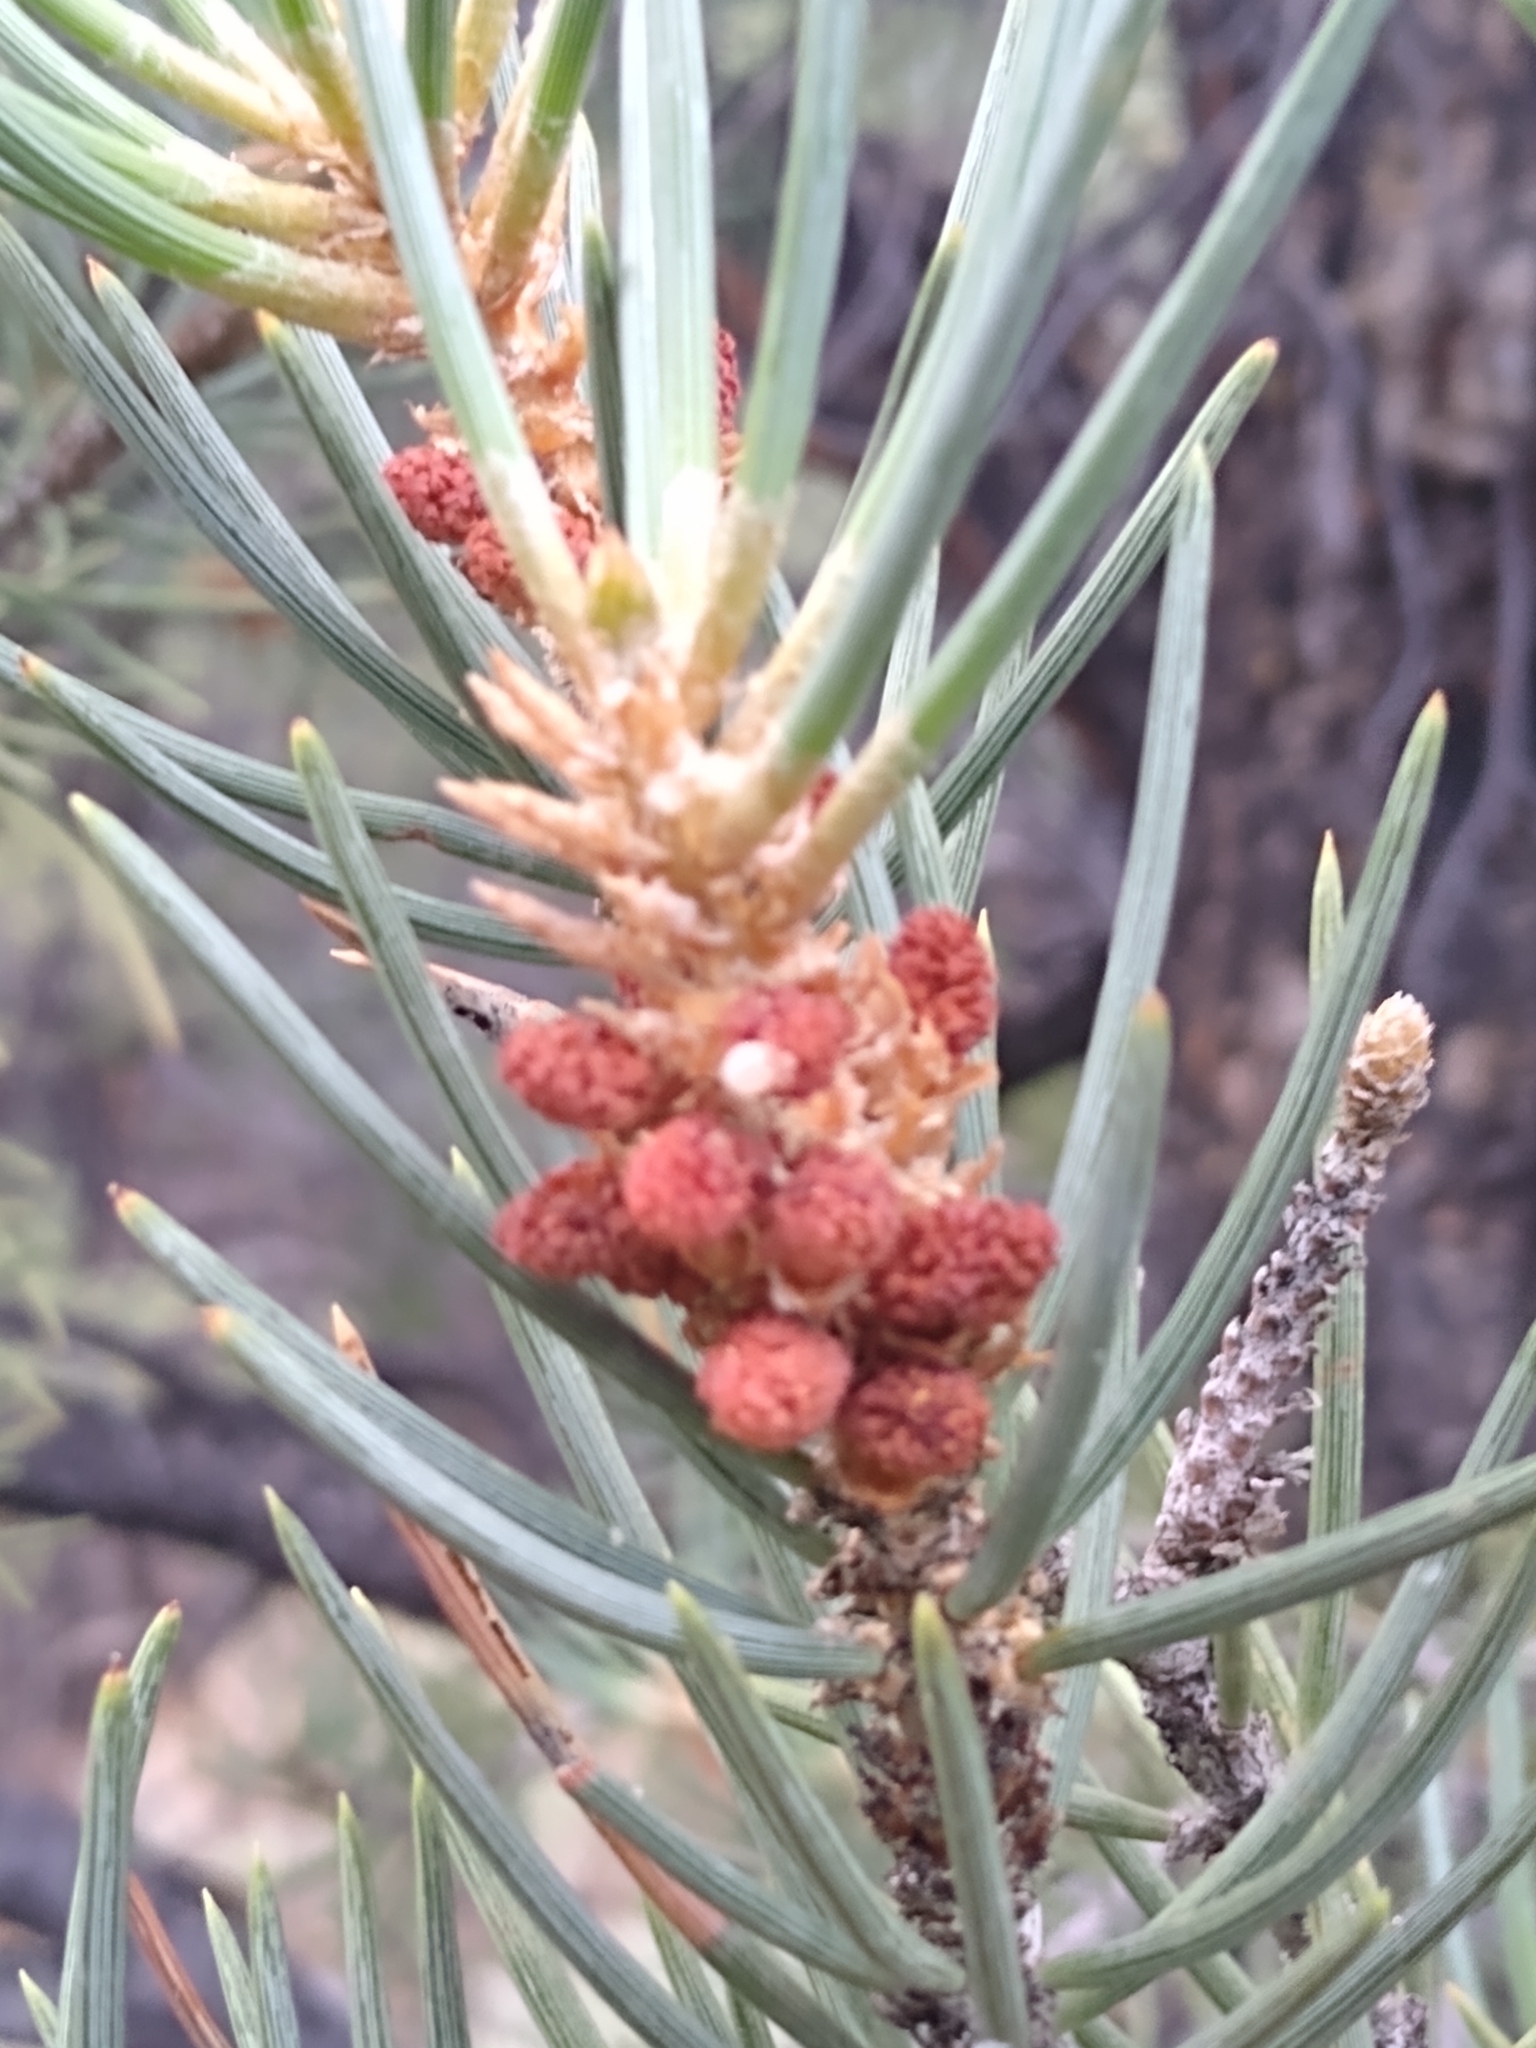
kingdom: Plantae
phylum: Tracheophyta
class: Pinopsida
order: Pinales
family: Pinaceae
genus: Pinus
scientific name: Pinus monophylla
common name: One-leaved nut pine
